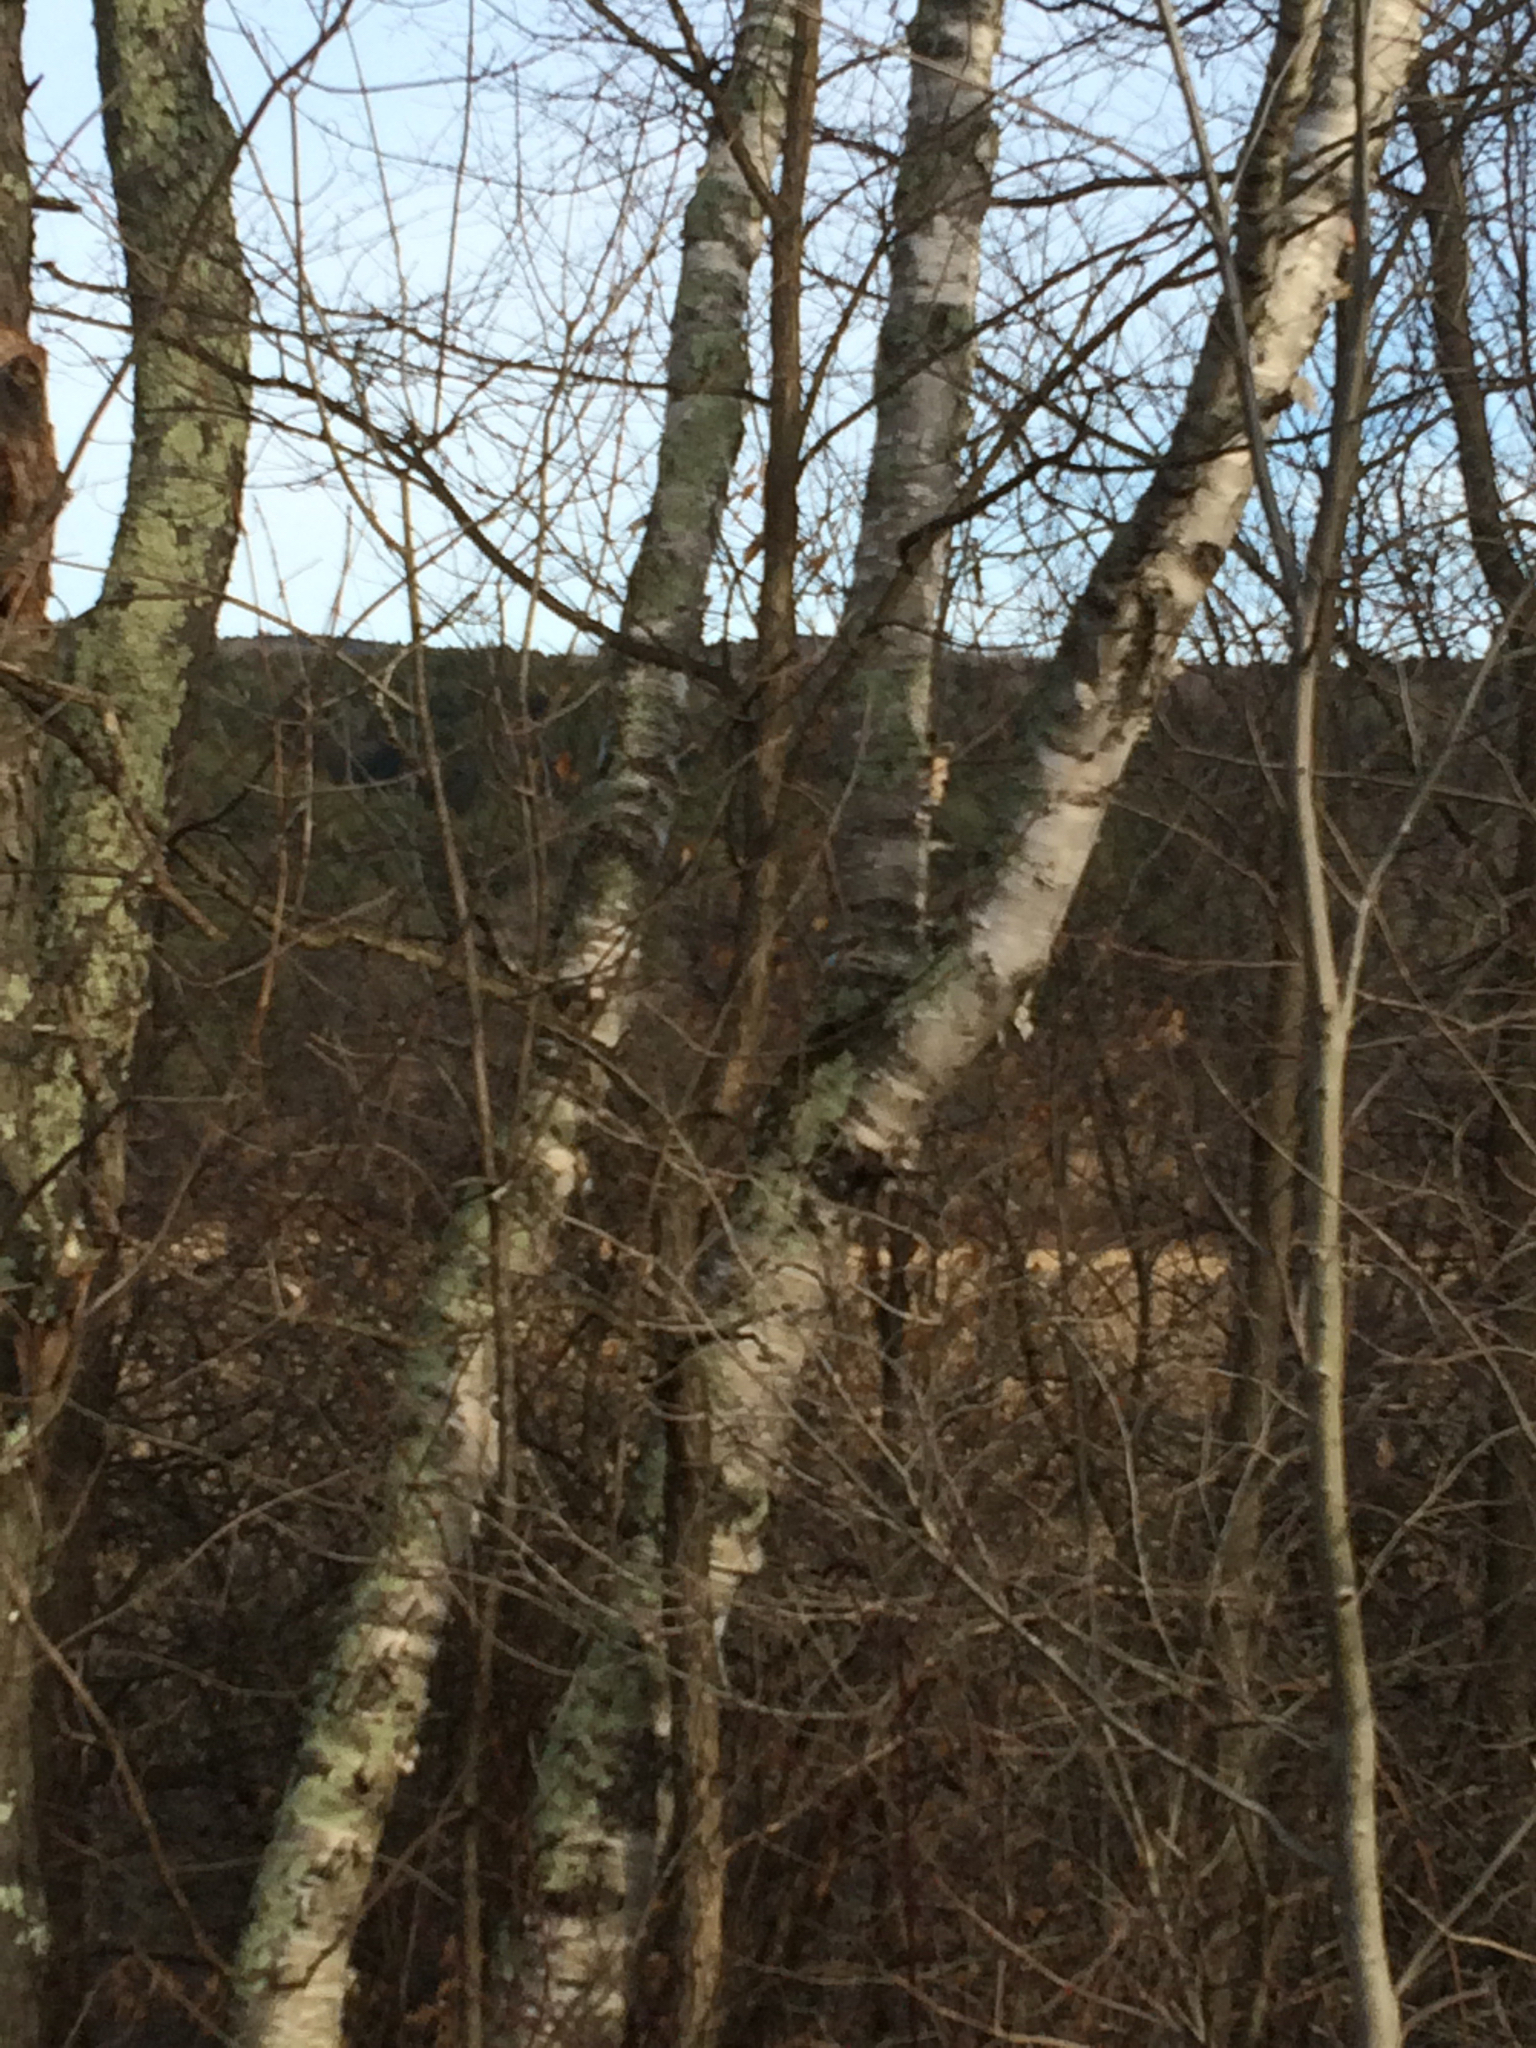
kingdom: Plantae
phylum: Tracheophyta
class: Magnoliopsida
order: Fagales
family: Betulaceae
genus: Betula
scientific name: Betula papyrifera
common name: Paper birch
